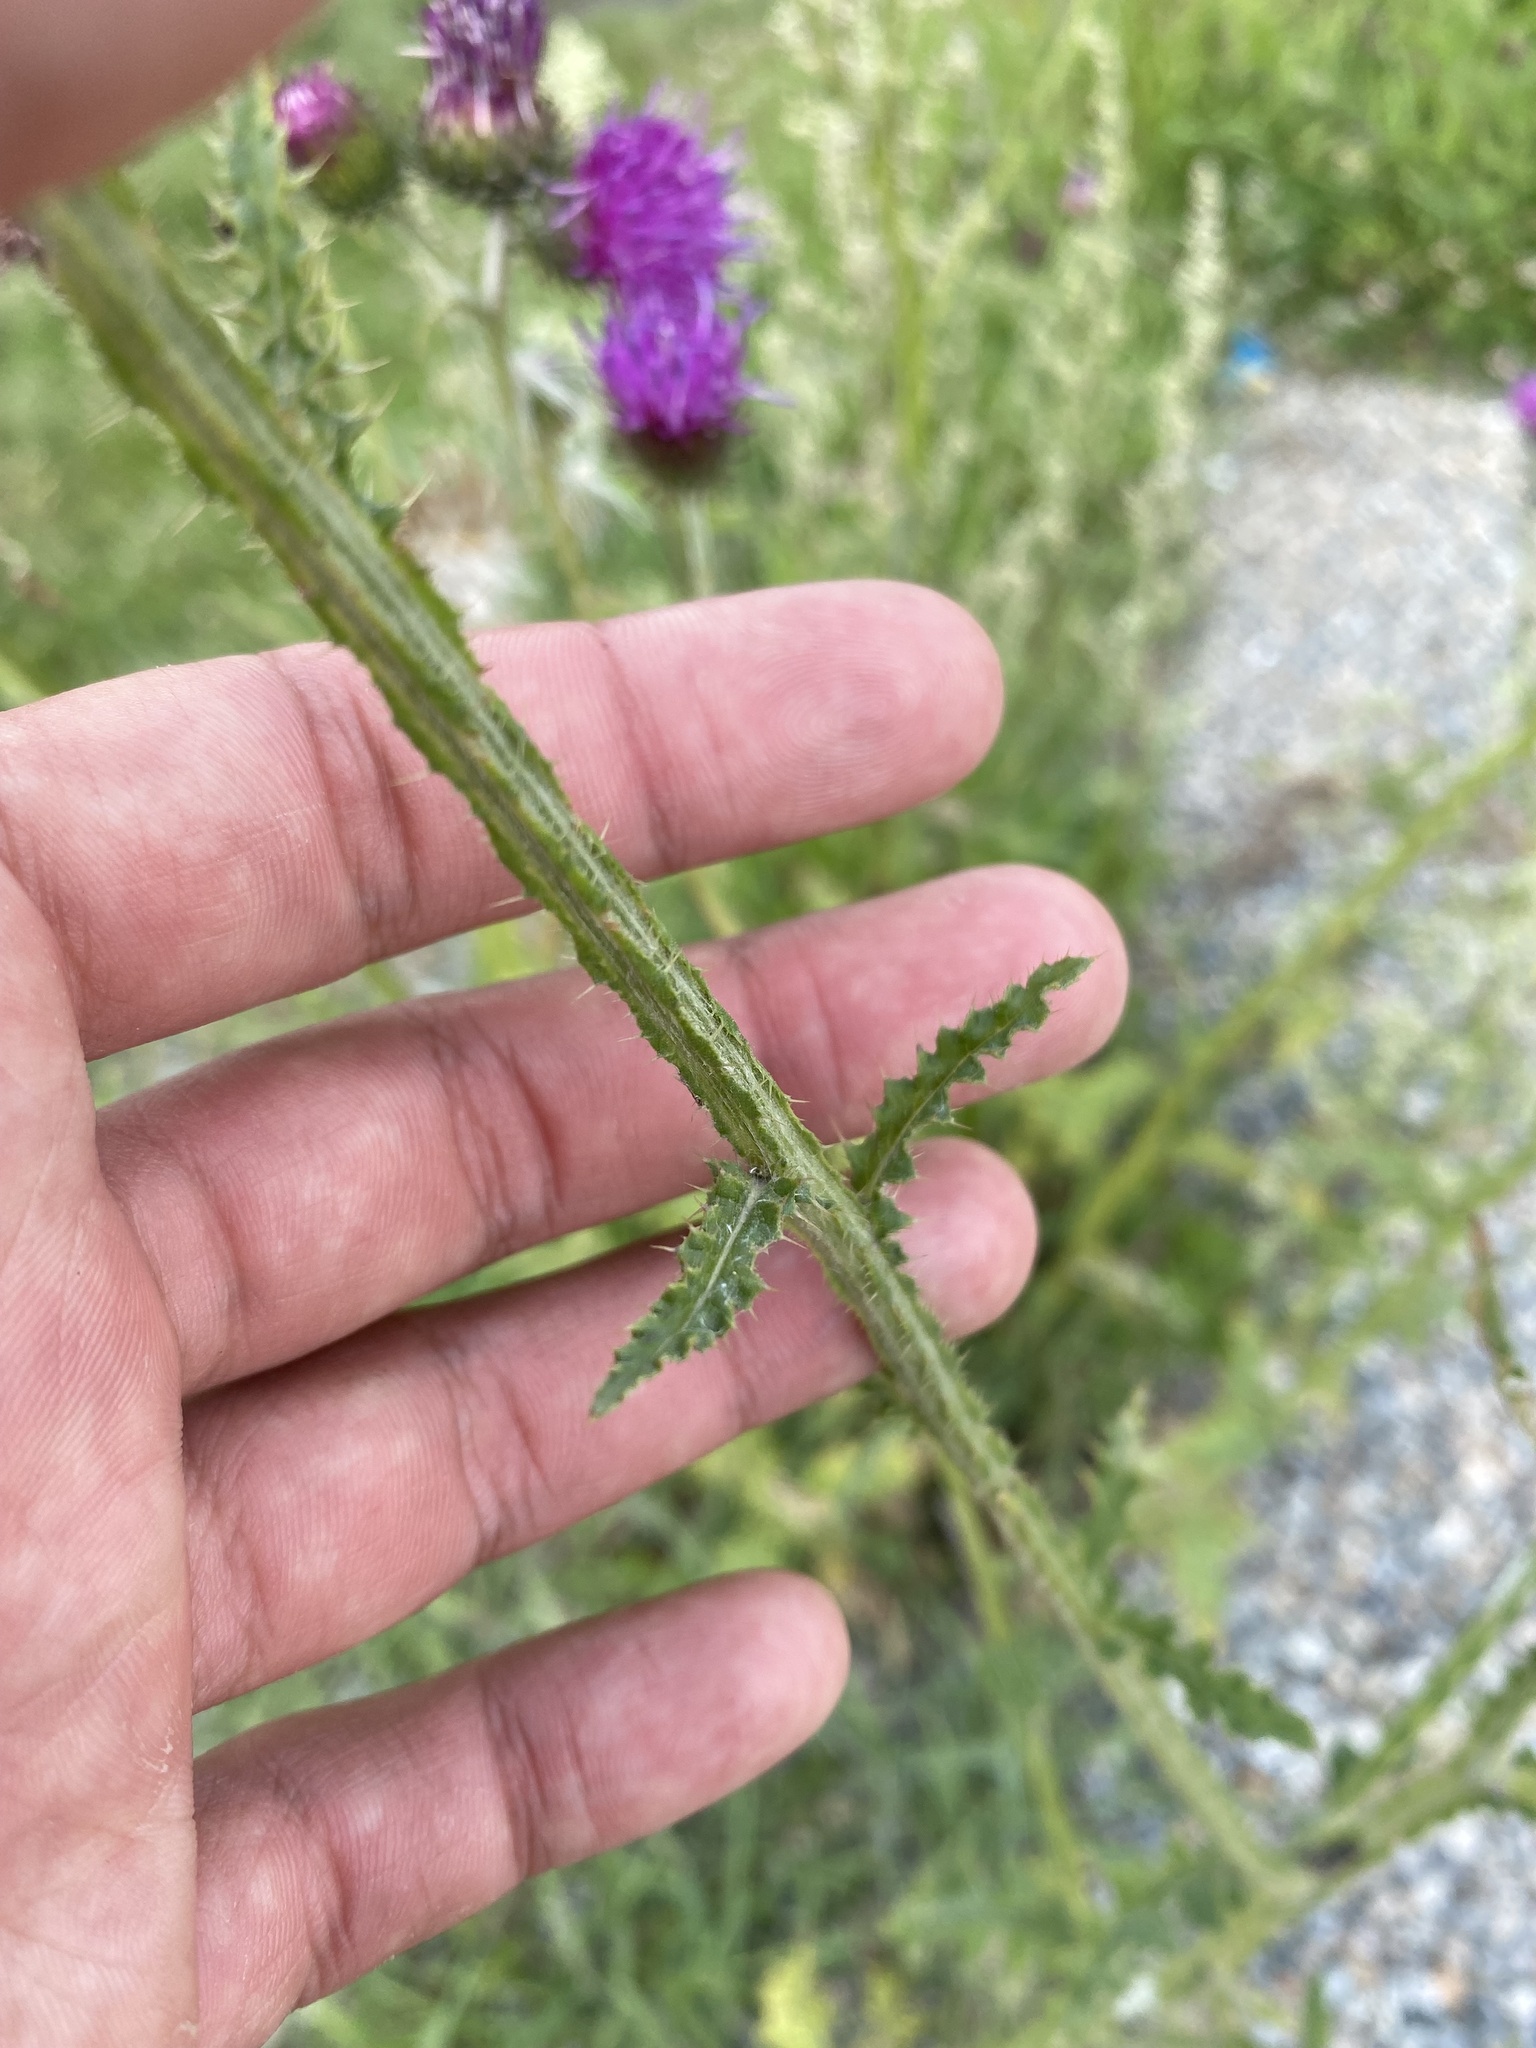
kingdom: Plantae
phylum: Tracheophyta
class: Magnoliopsida
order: Asterales
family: Asteraceae
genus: Carduus
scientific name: Carduus crispus
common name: Welted thistle
